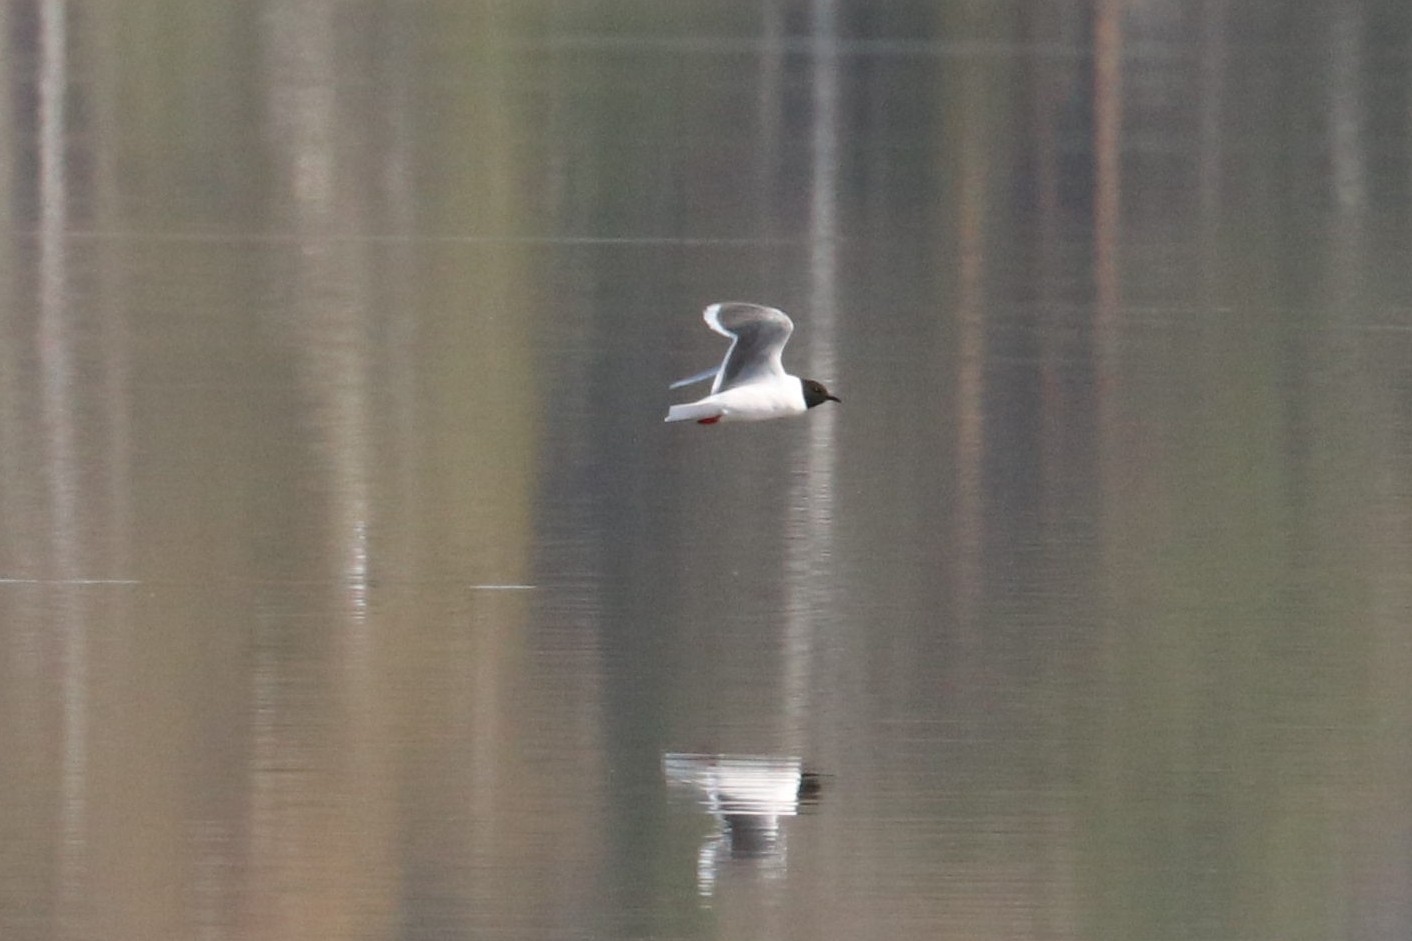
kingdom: Animalia
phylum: Chordata
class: Aves
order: Charadriiformes
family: Laridae
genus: Hydrocoloeus
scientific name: Hydrocoloeus minutus
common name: Little gull
